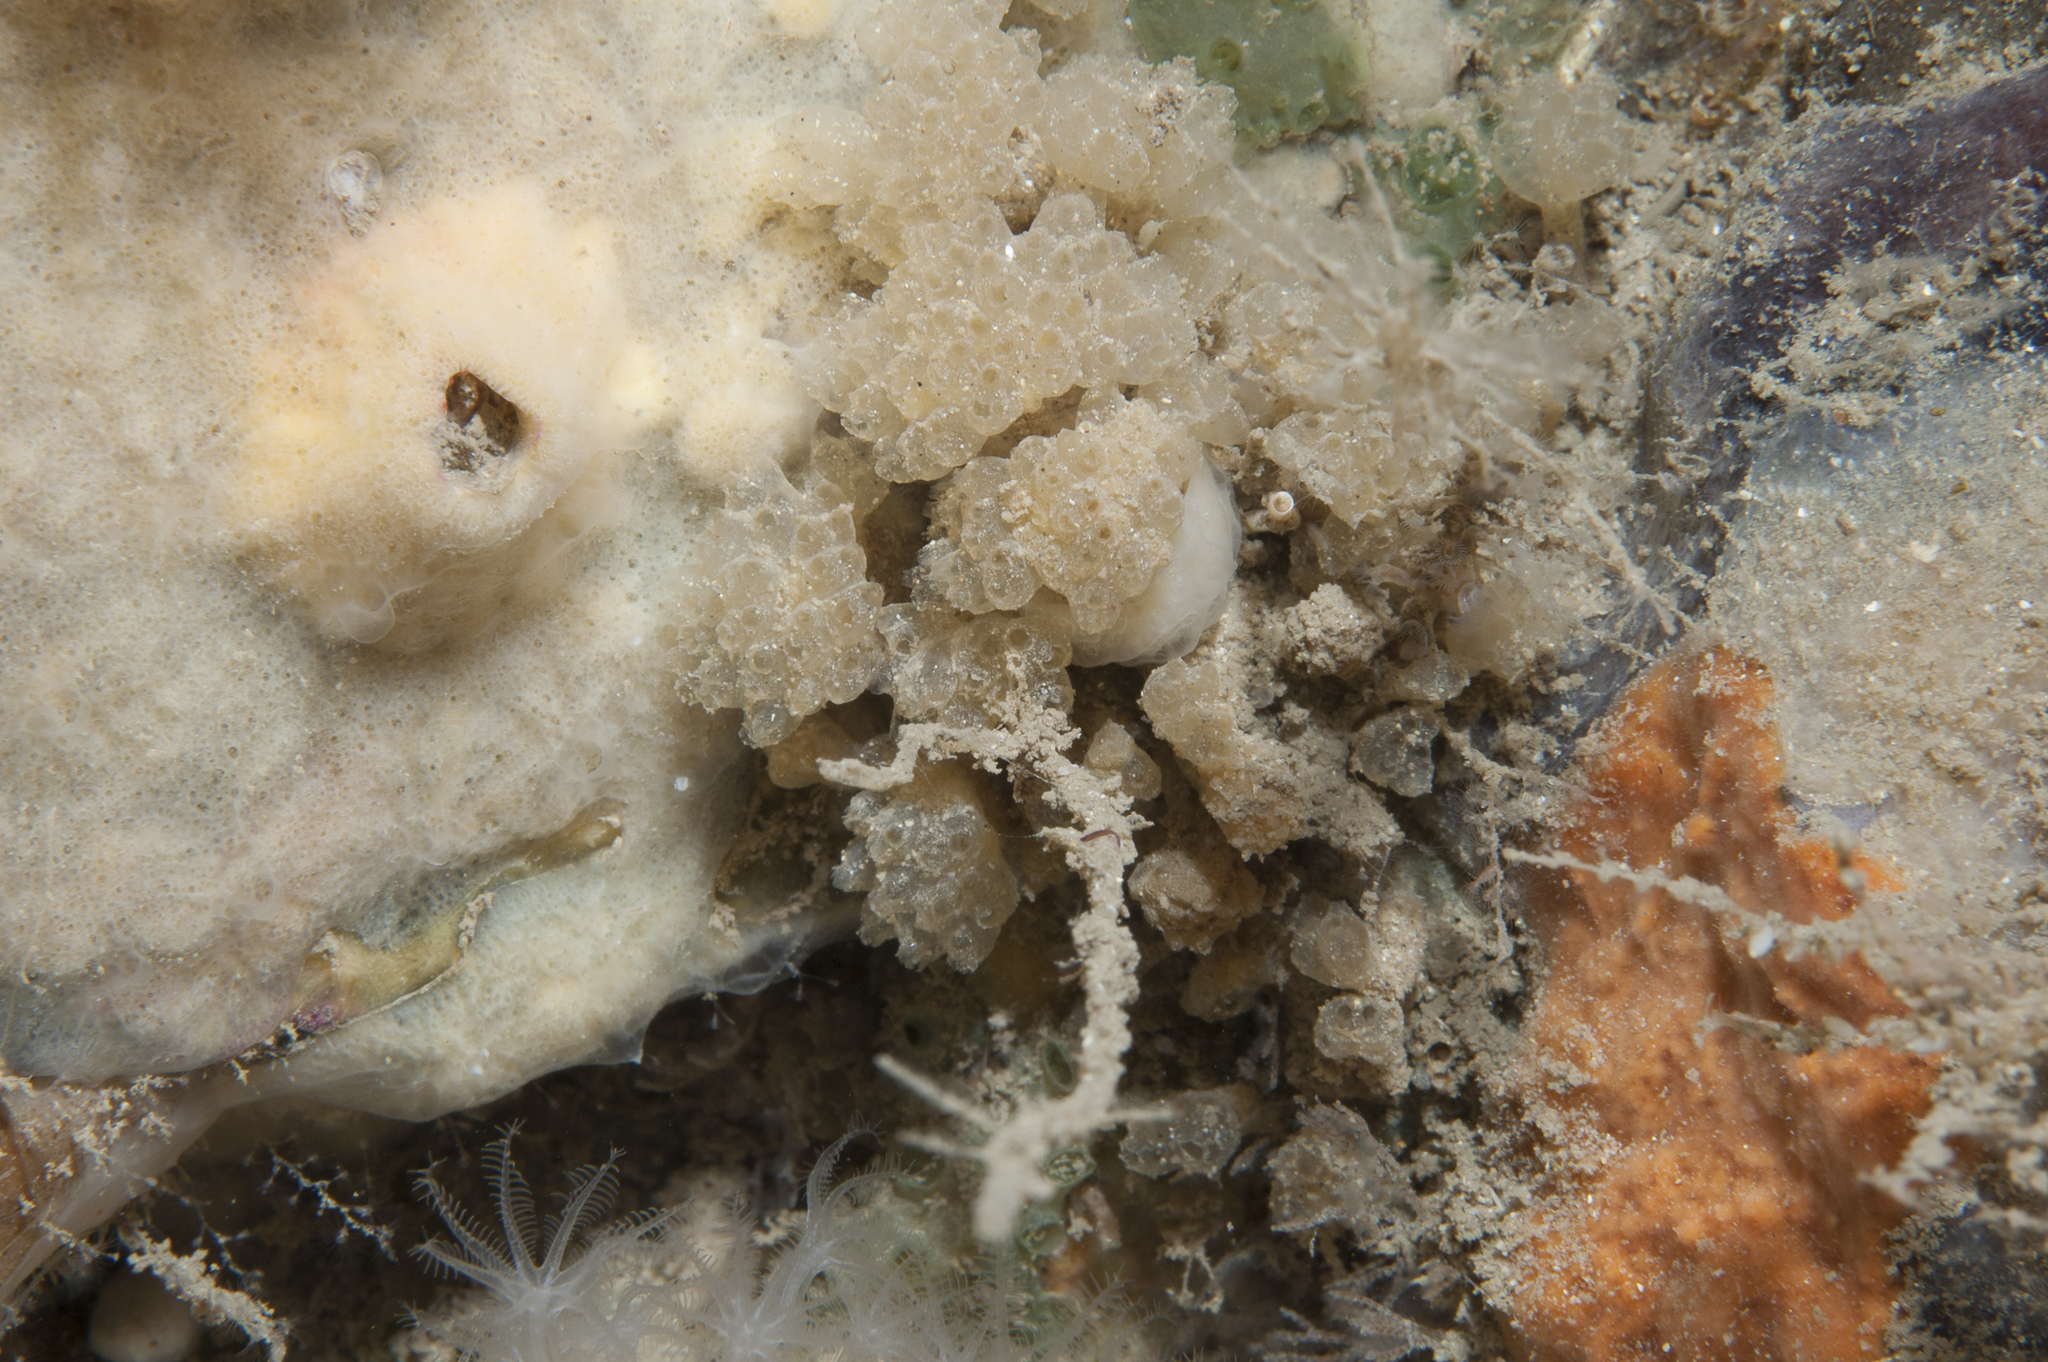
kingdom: Animalia
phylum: Chordata
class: Ascidiacea
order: Aplousobranchia
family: Polycitoridae
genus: Archidistoma
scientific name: Archidistoma aggregatum
